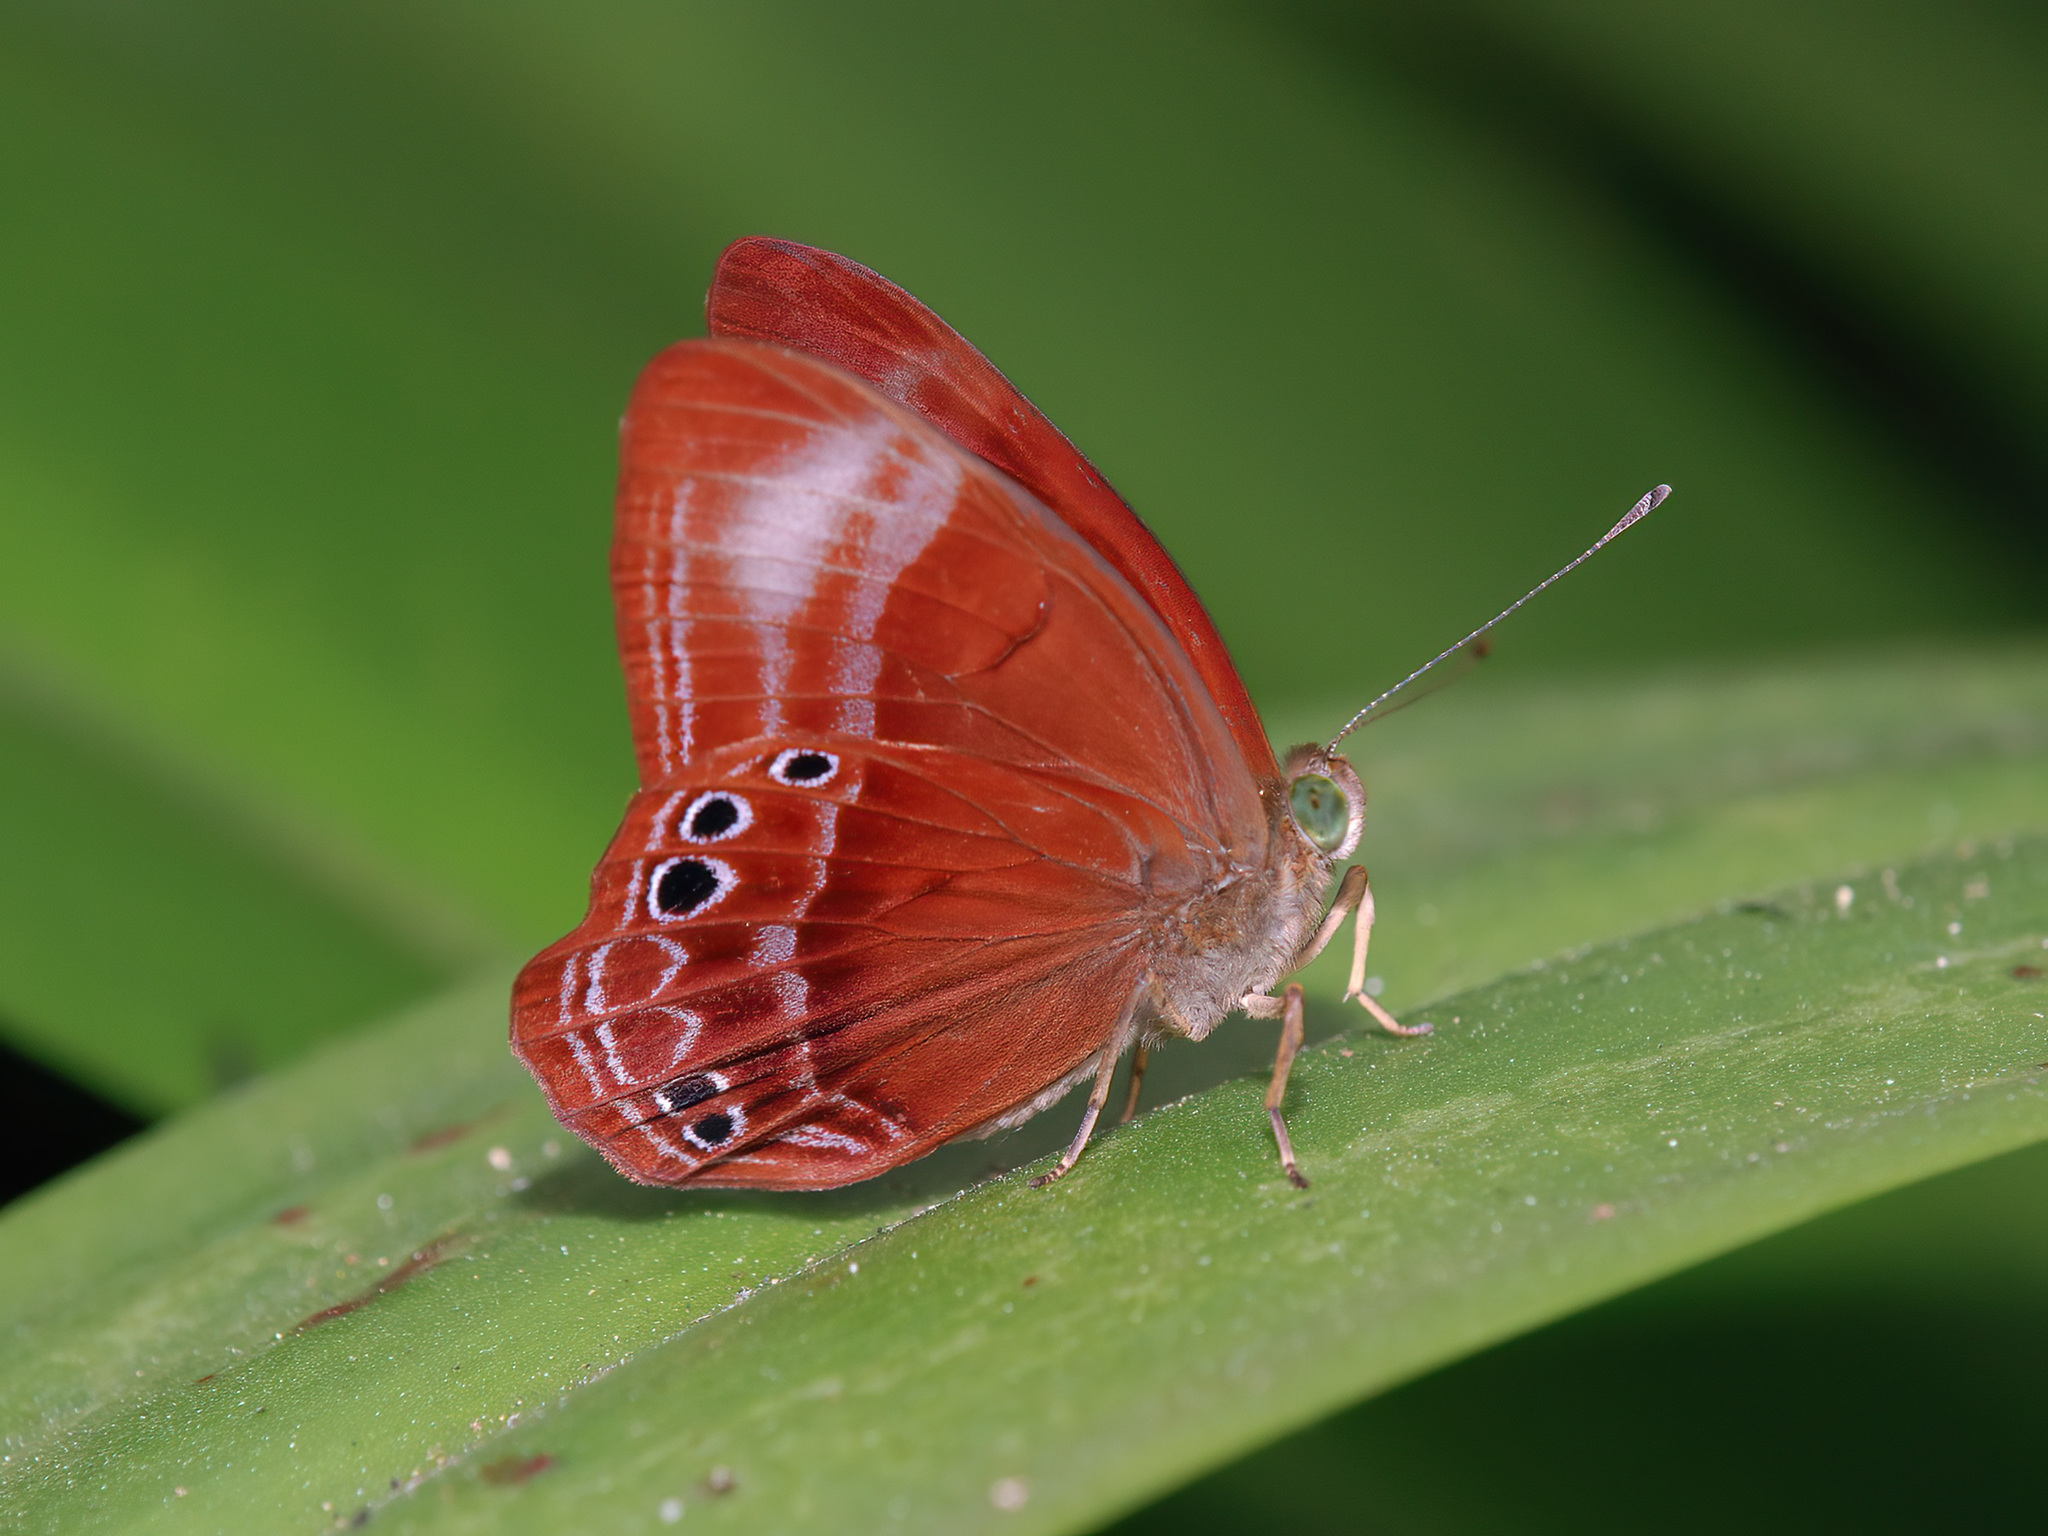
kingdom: Animalia
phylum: Arthropoda
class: Insecta
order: Lepidoptera
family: Lycaenidae
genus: Abisara
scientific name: Abisara geza
